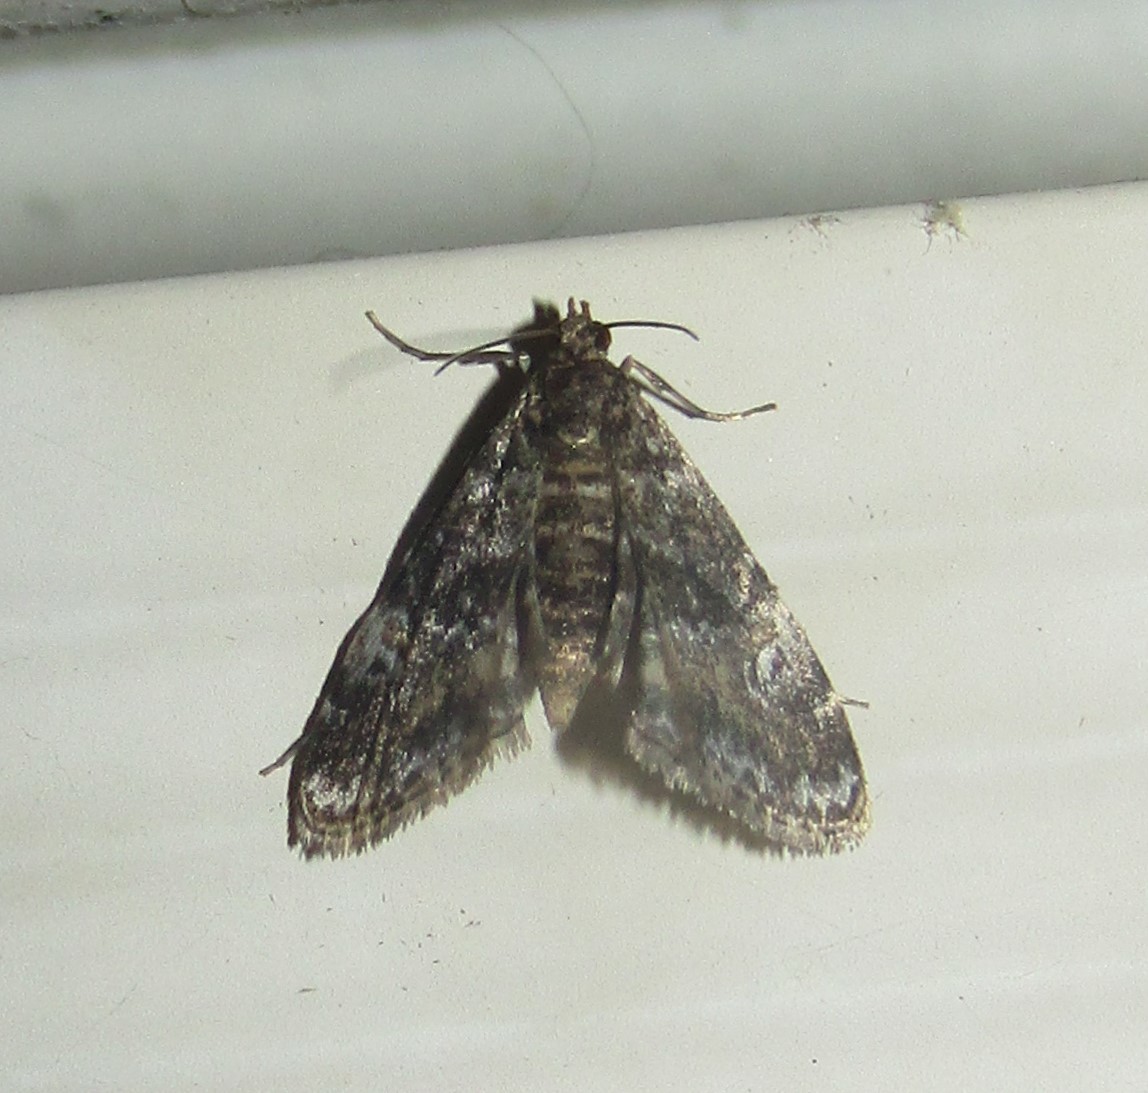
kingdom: Animalia
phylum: Arthropoda
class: Insecta
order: Lepidoptera
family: Crambidae
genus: Elophila
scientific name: Elophila obliteralis
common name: Waterlily leafcutter moth
